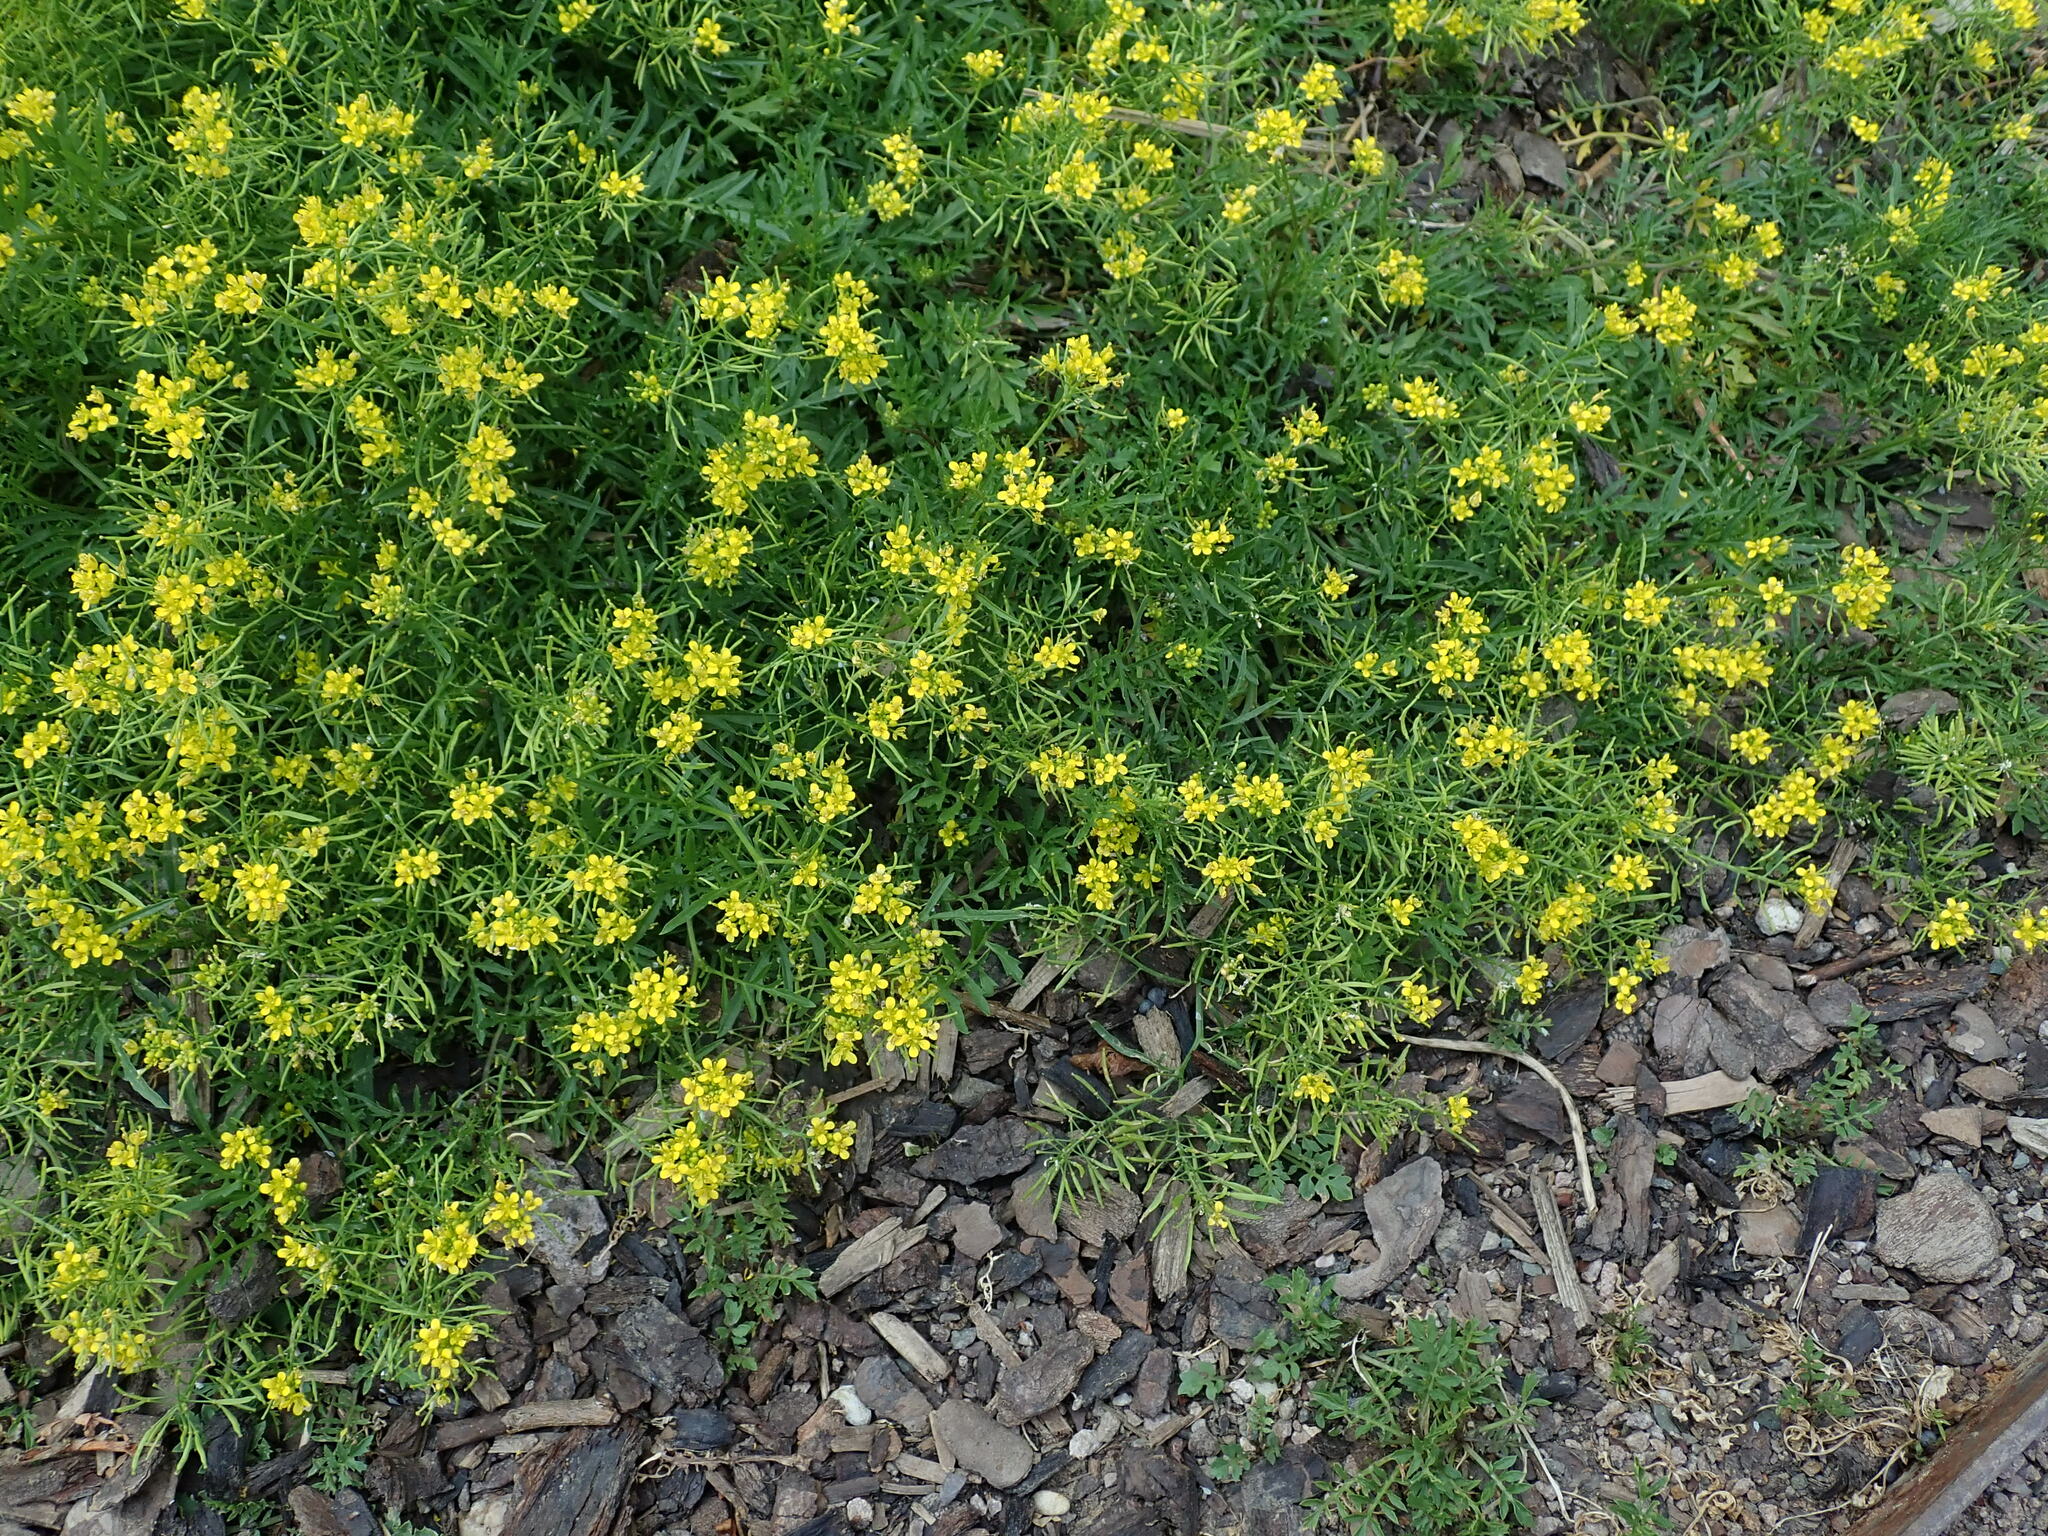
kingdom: Plantae
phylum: Tracheophyta
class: Magnoliopsida
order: Brassicales
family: Brassicaceae
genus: Rorippa
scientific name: Rorippa sylvestris
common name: Creeping yellowcress
